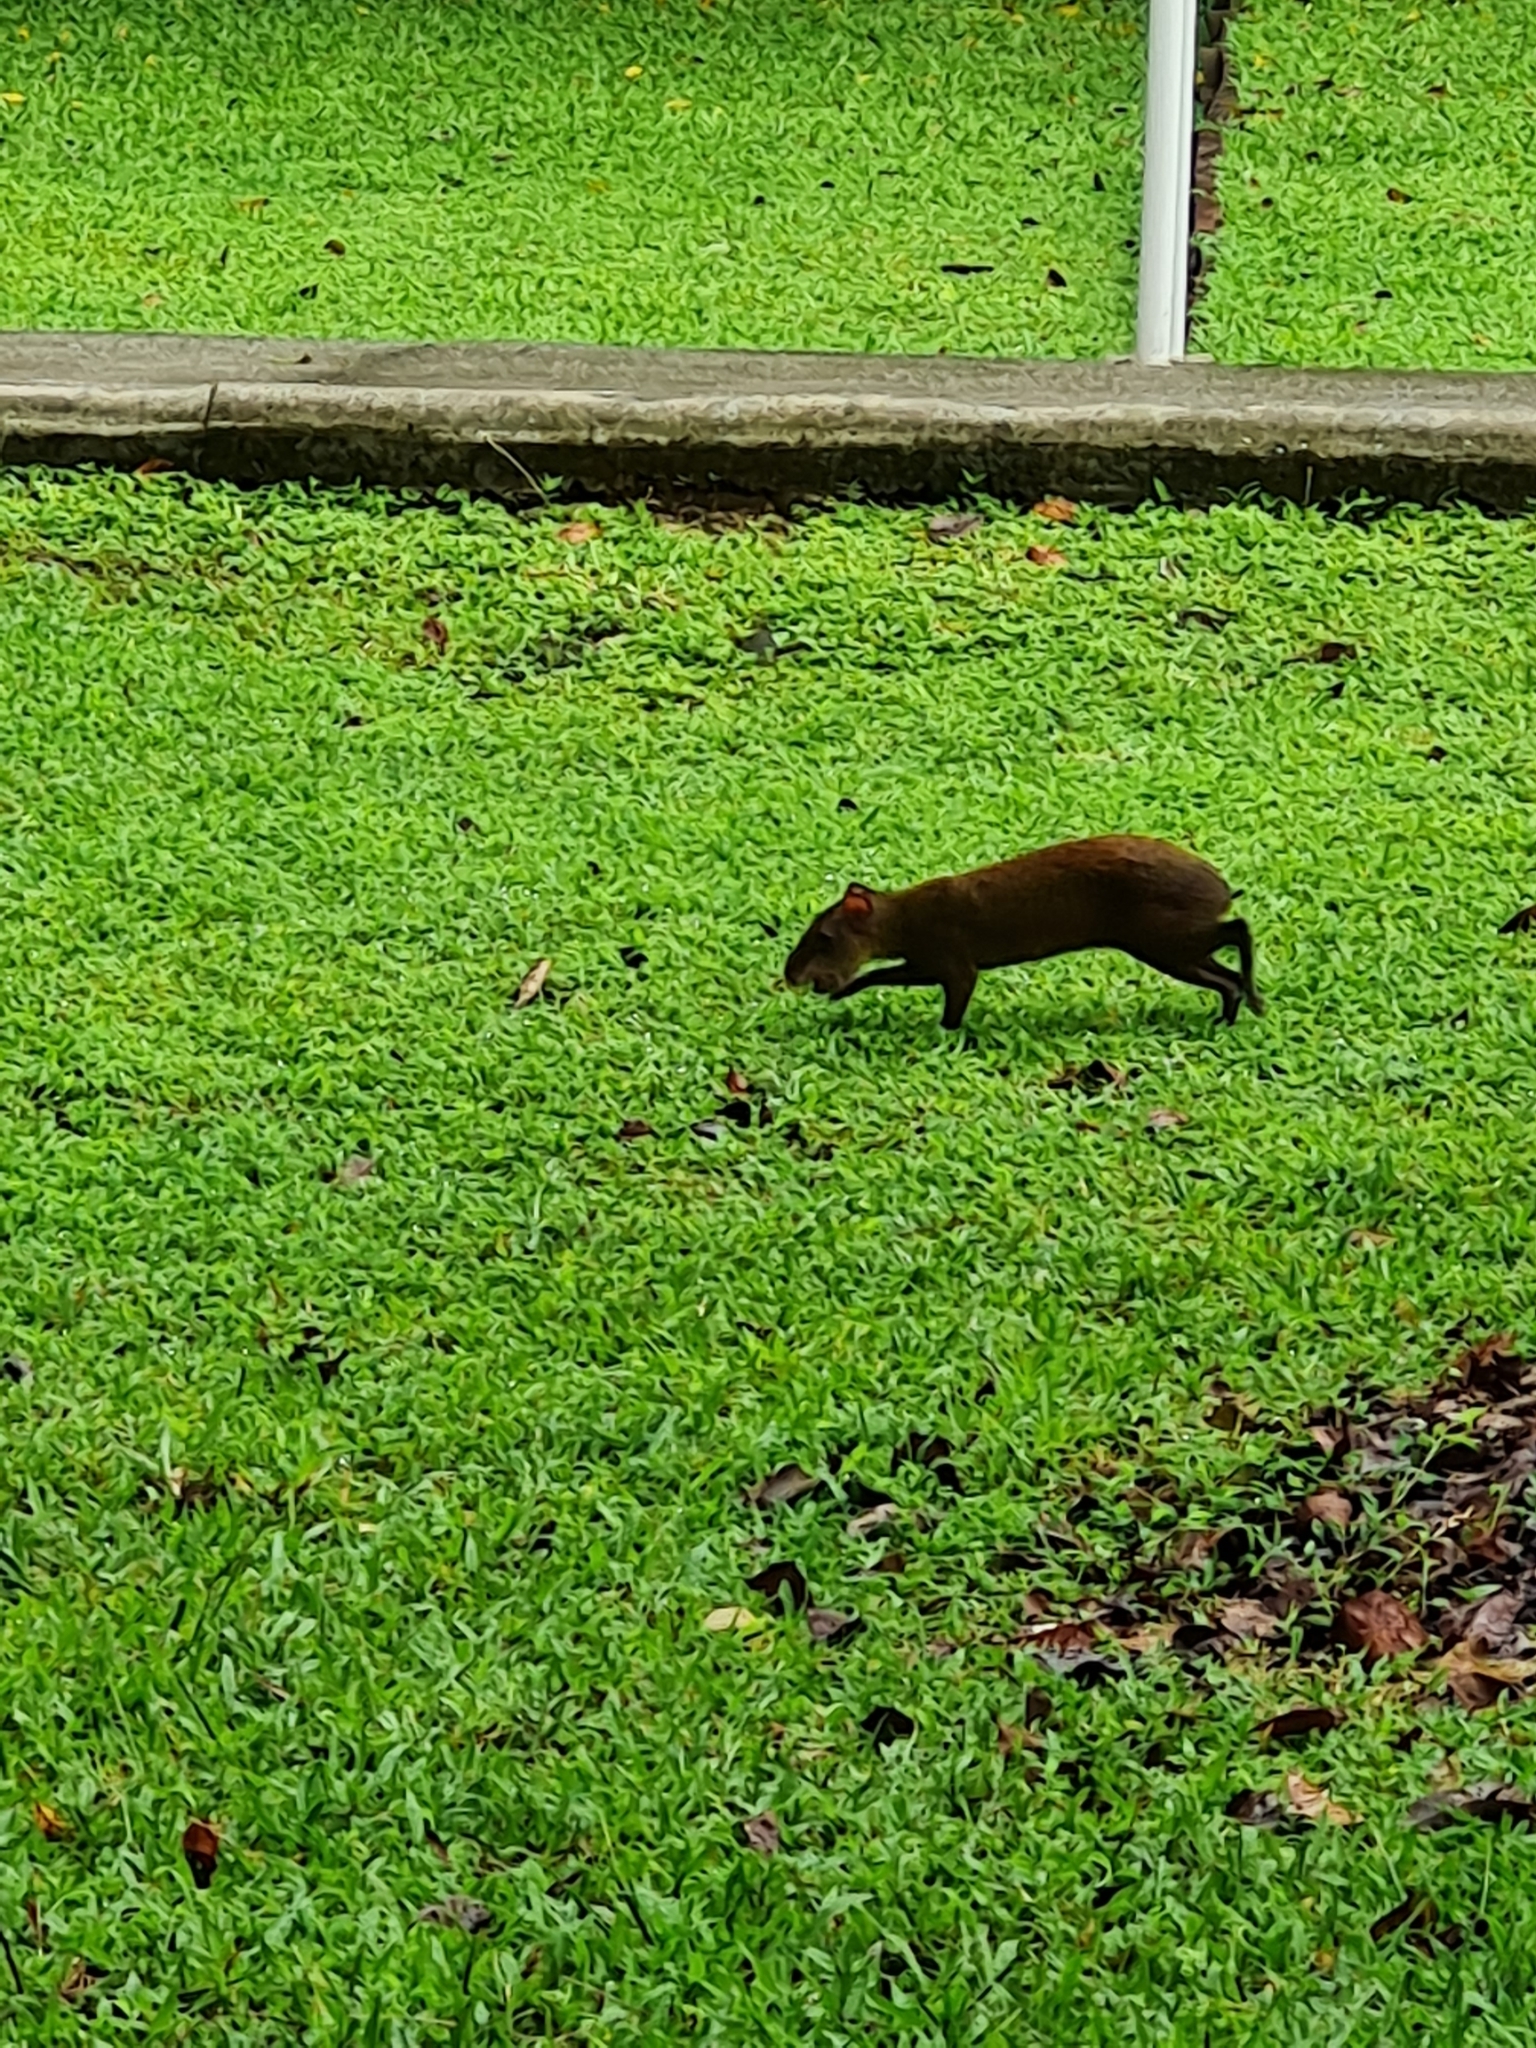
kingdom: Animalia
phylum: Chordata
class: Mammalia
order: Rodentia
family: Dasyproctidae
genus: Dasyprocta
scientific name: Dasyprocta punctata
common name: Central american agouti
